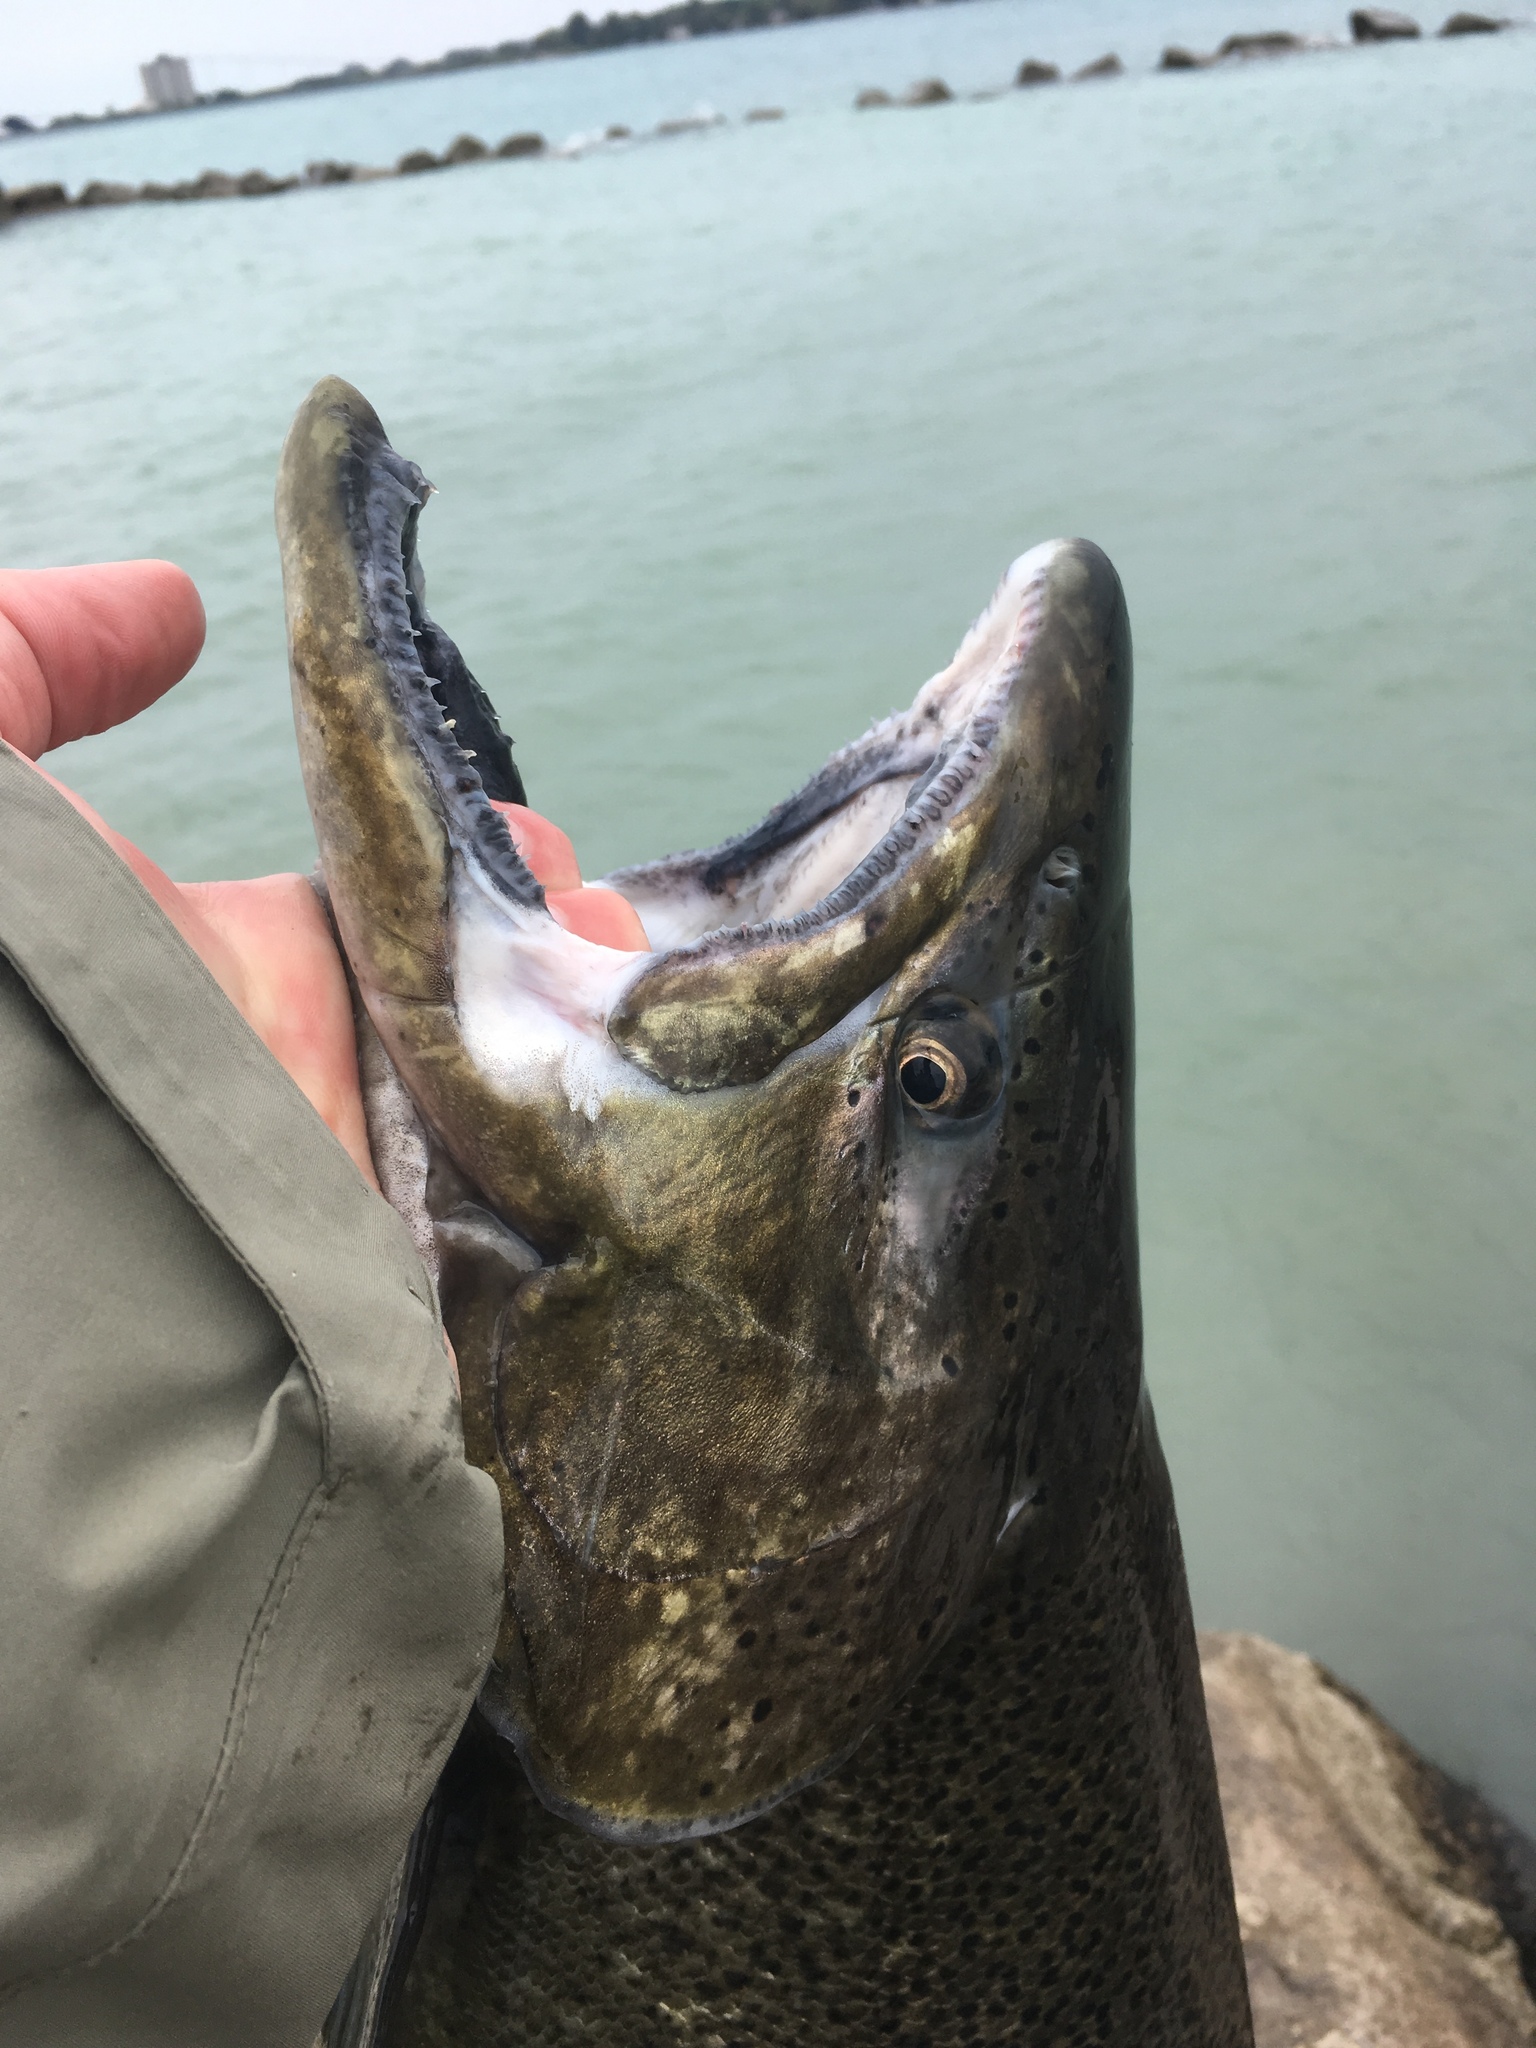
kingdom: Animalia
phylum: Chordata
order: Salmoniformes
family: Salmonidae
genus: Oncorhynchus
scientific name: Oncorhynchus tshawytscha
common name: Chinook salmon
